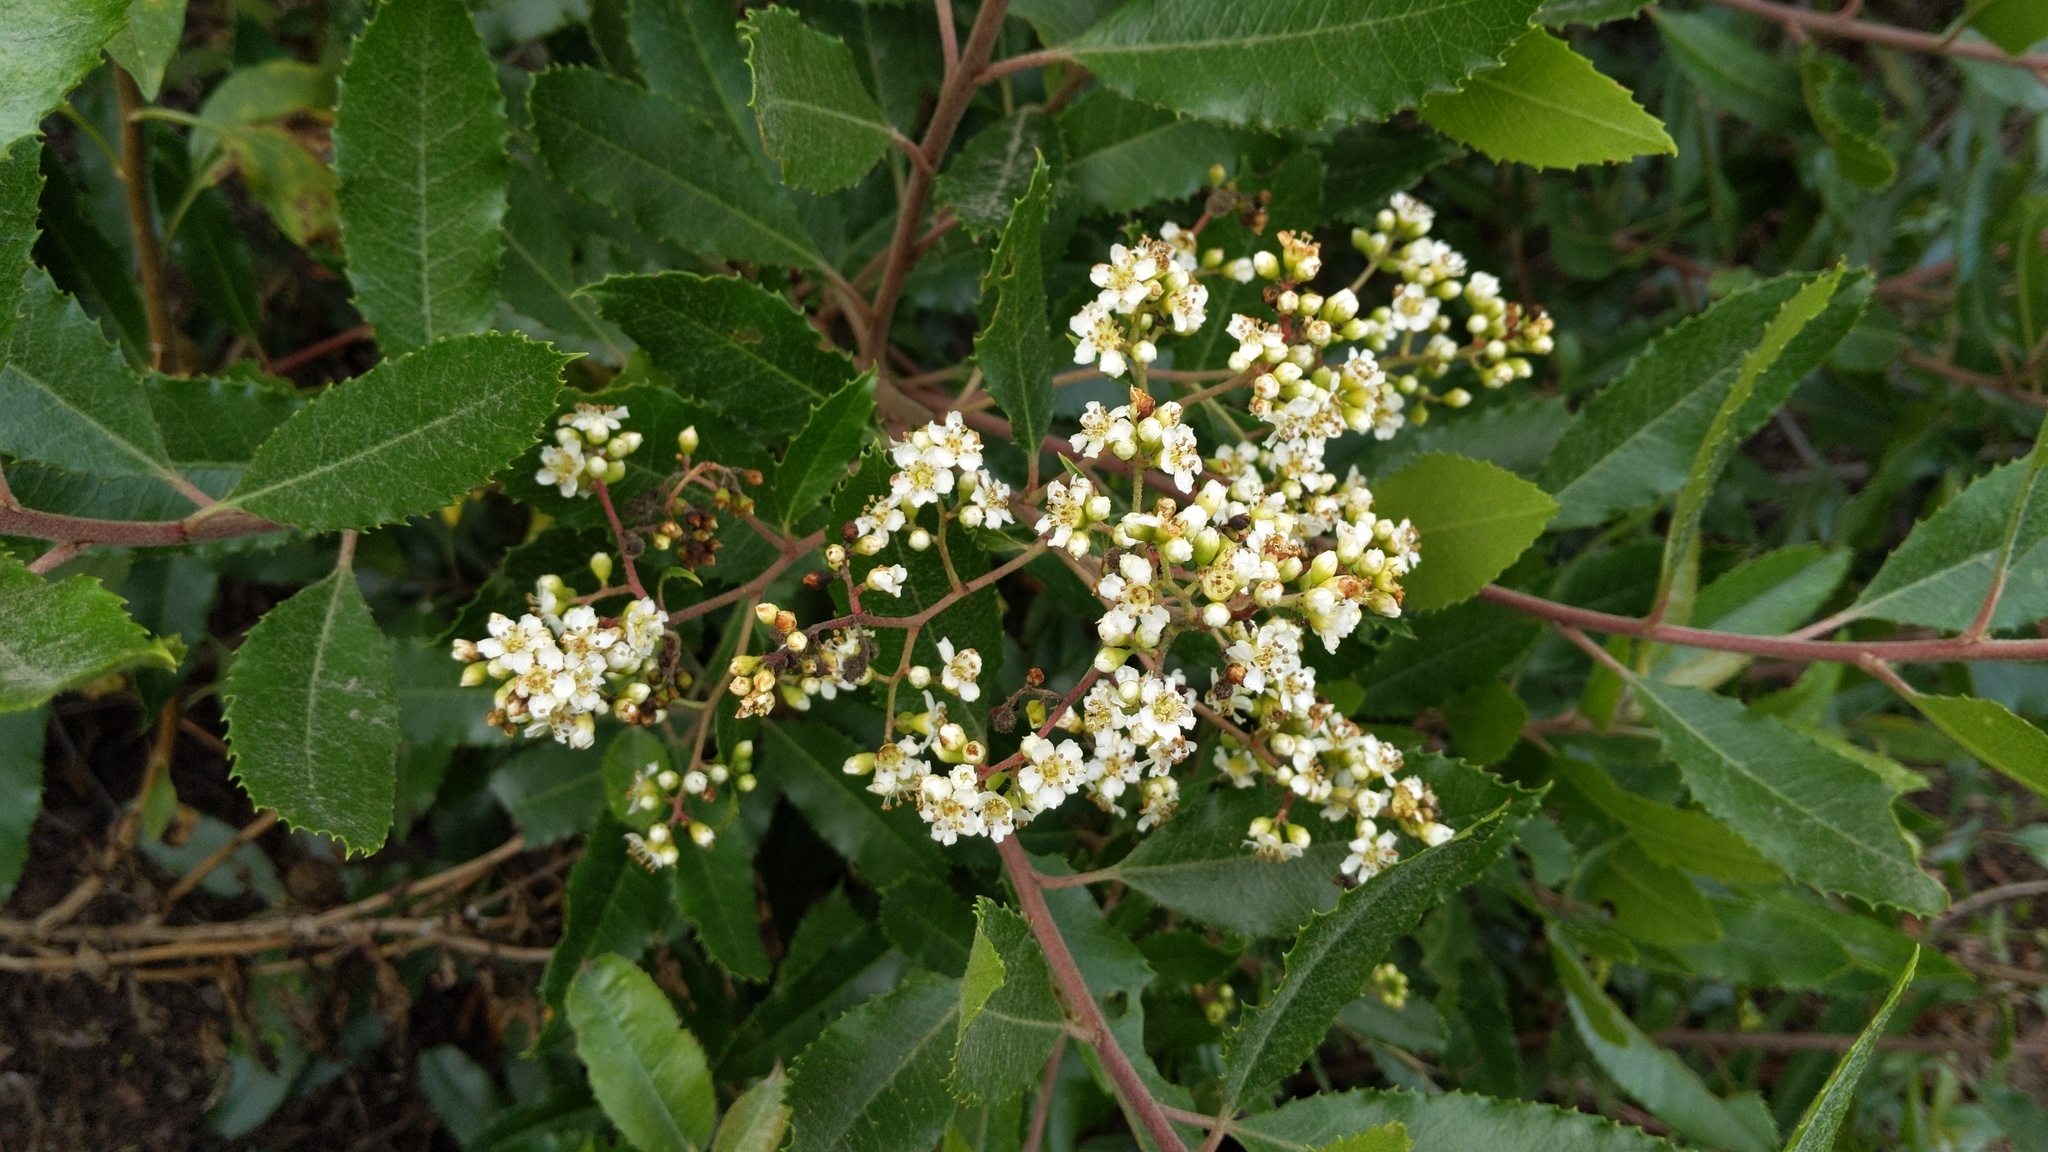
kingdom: Plantae
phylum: Tracheophyta
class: Magnoliopsida
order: Rosales
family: Rosaceae
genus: Heteromeles
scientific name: Heteromeles arbutifolia
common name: California-holly
